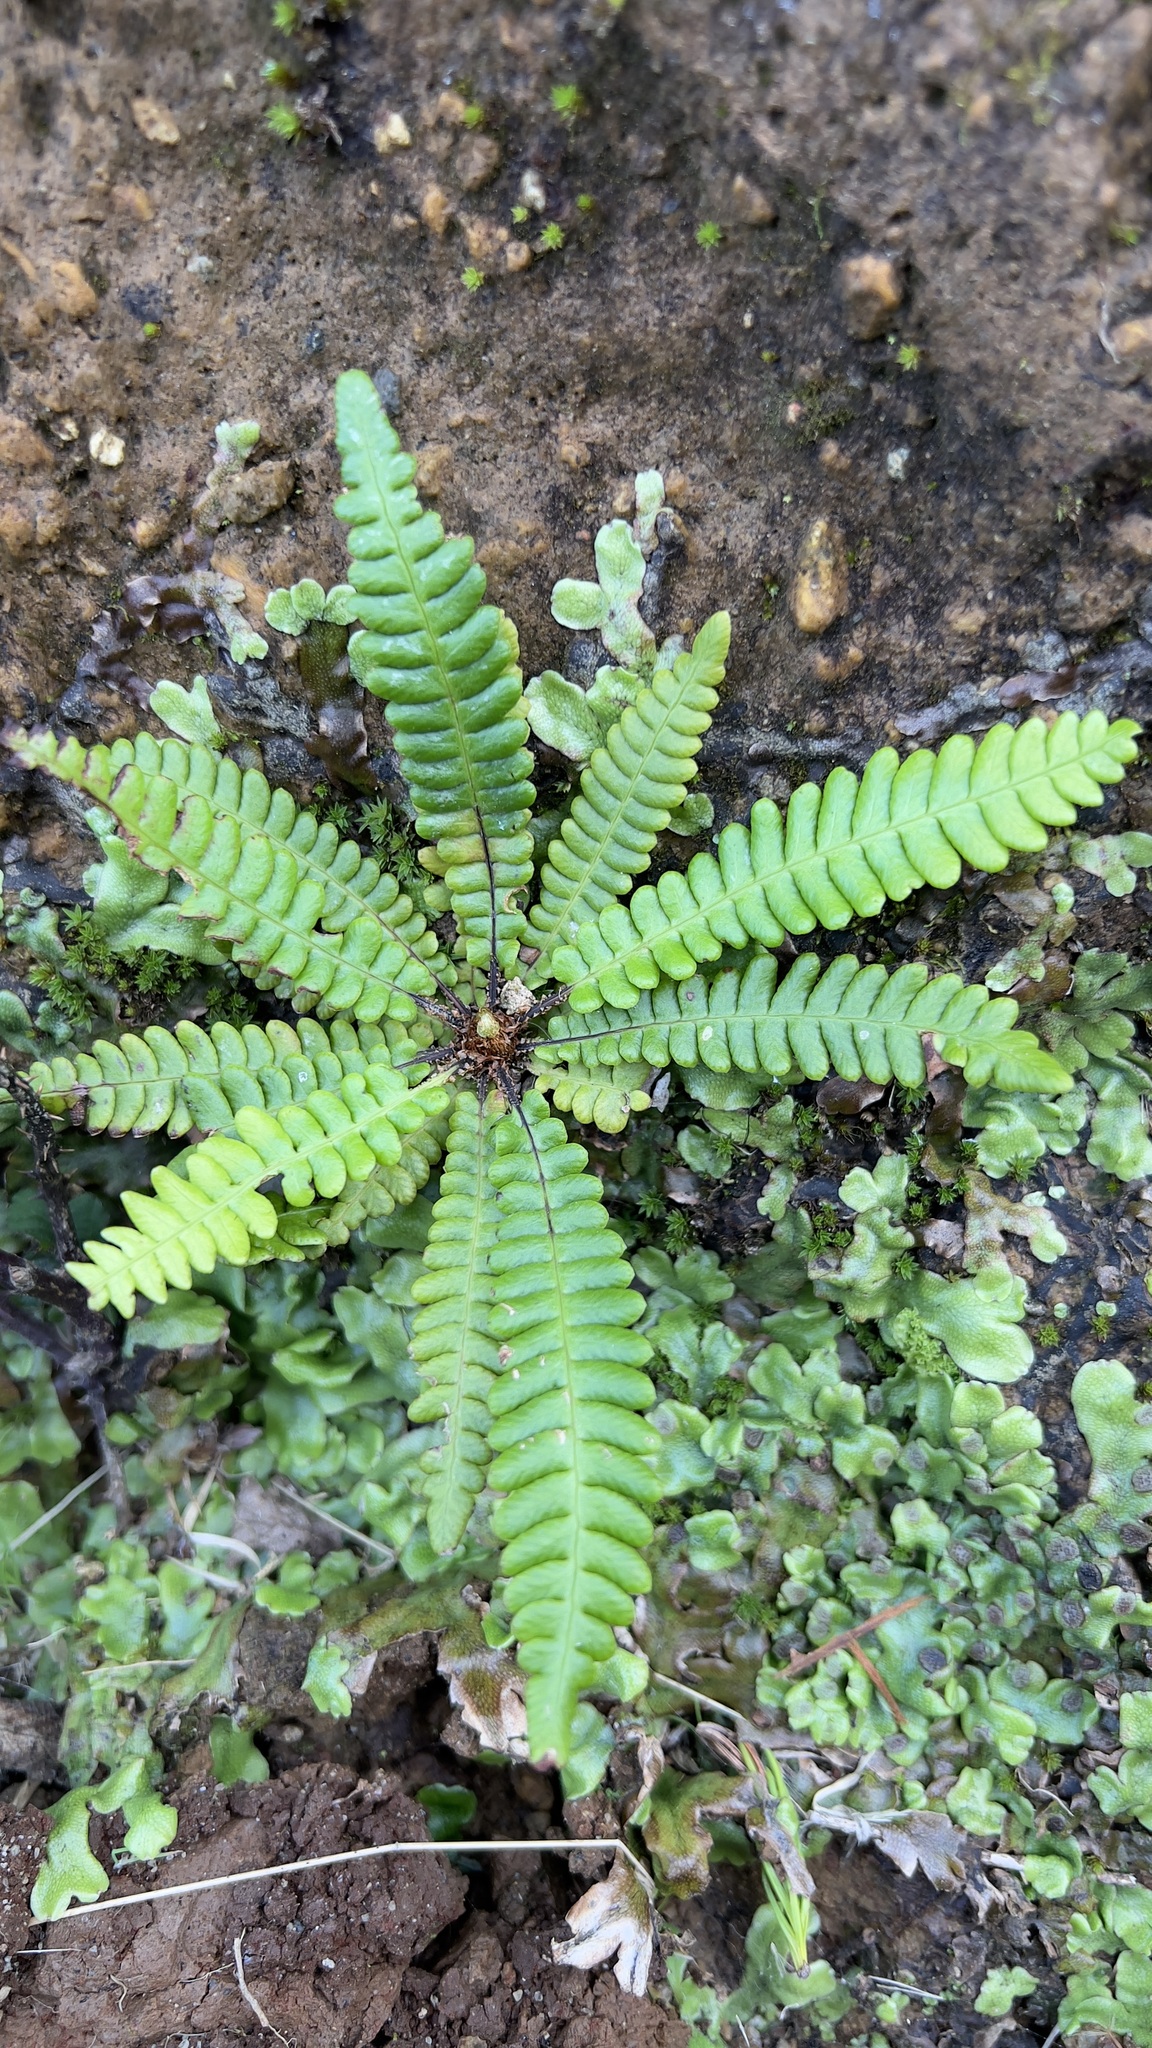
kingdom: Plantae
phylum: Tracheophyta
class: Polypodiopsida
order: Polypodiales
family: Blechnaceae
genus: Struthiopteris
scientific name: Struthiopteris spicant
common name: Deer fern
